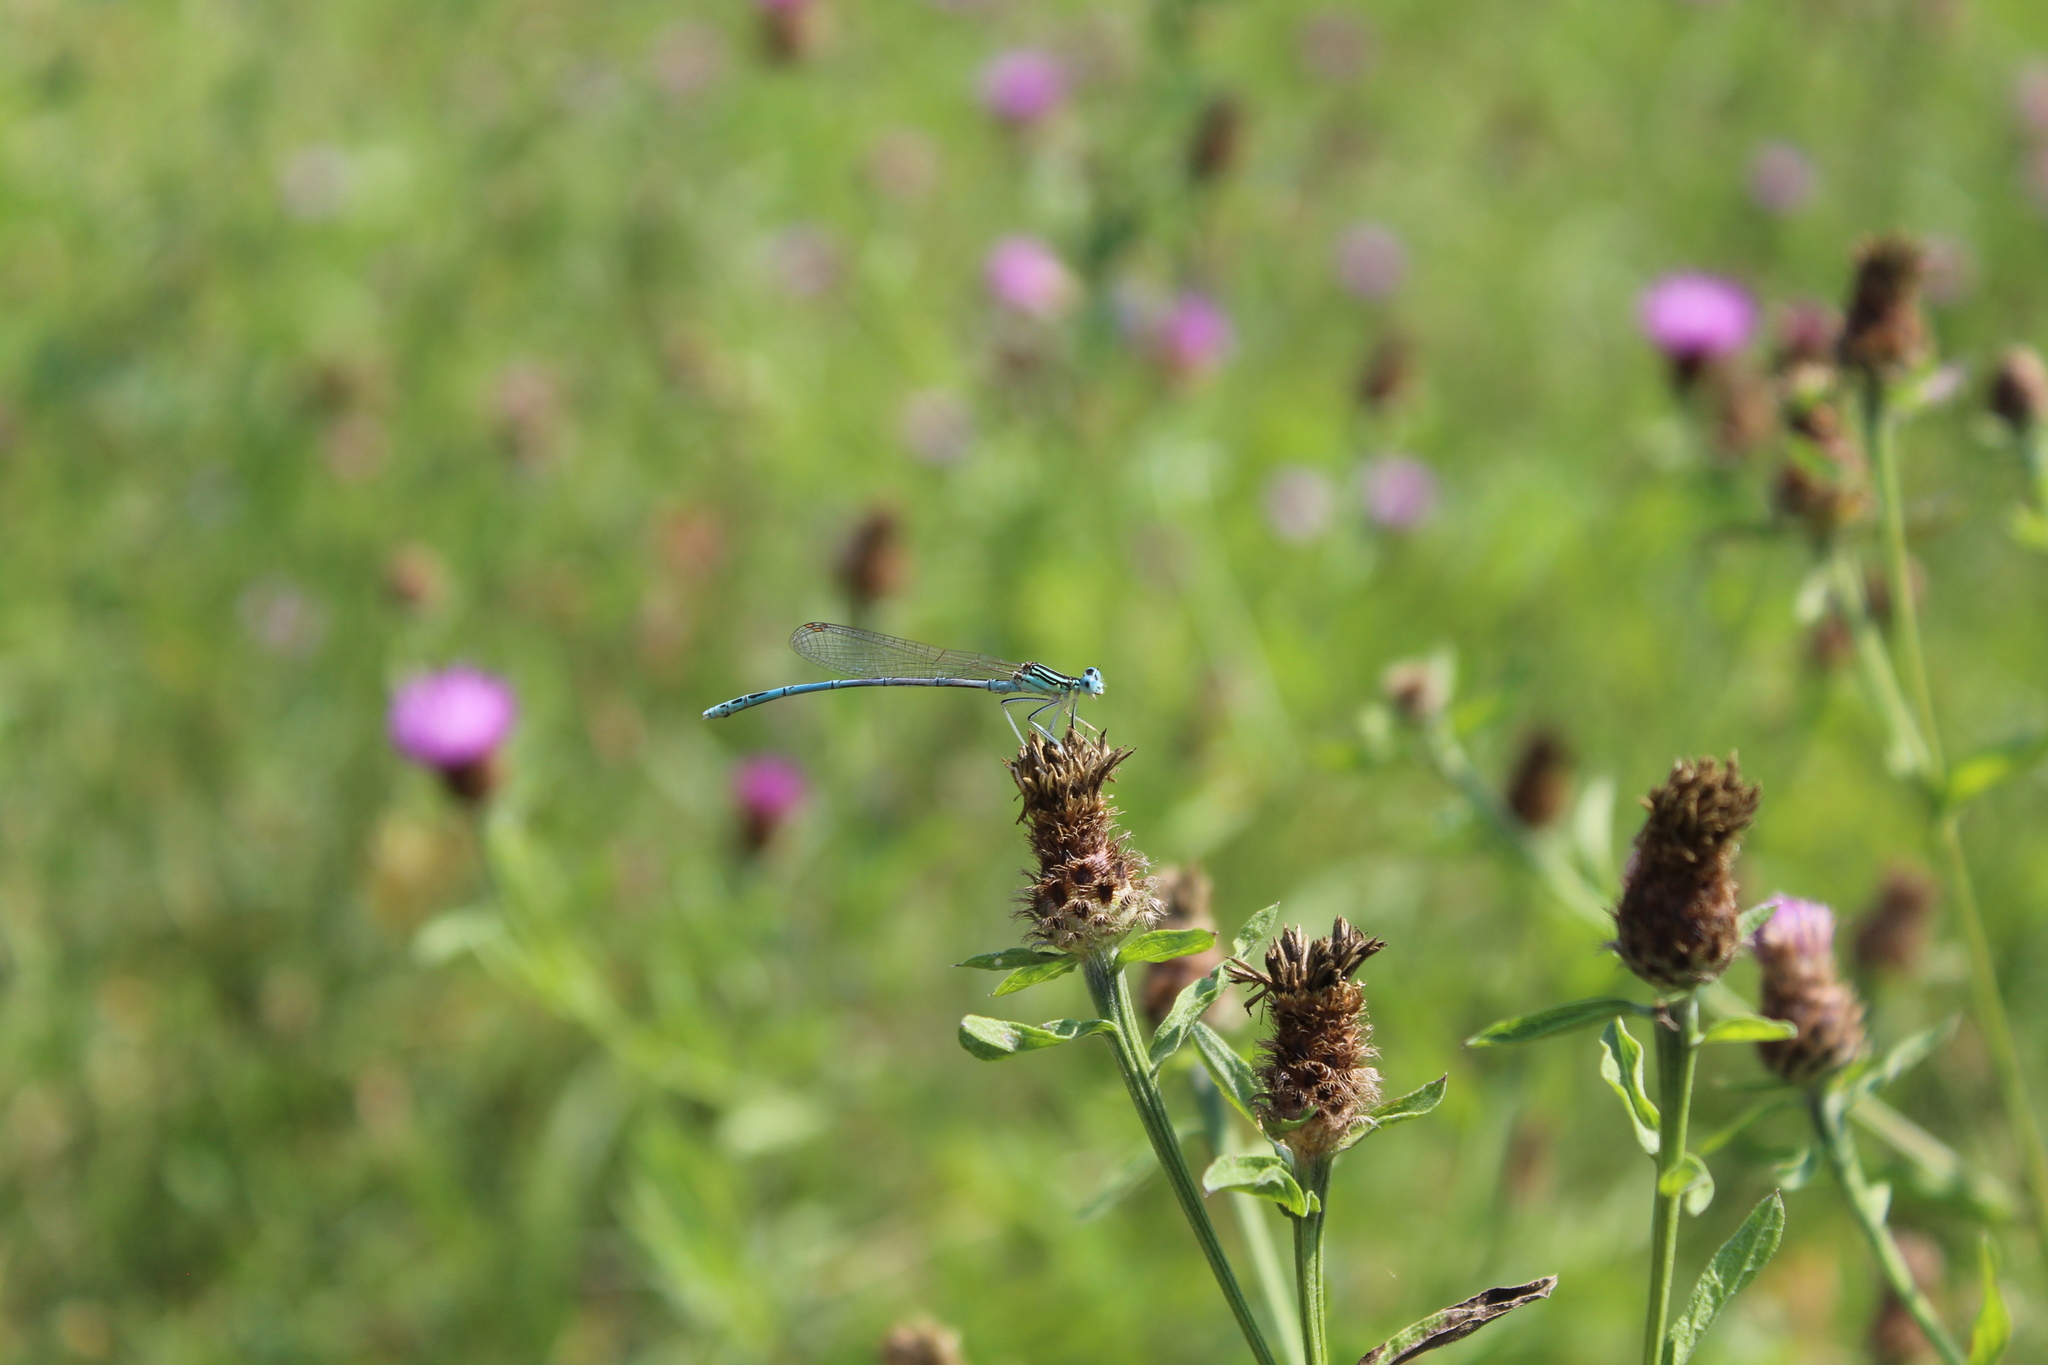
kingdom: Animalia
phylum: Arthropoda
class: Insecta
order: Odonata
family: Platycnemididae
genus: Platycnemis
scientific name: Platycnemis pennipes
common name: White-legged damselfly
